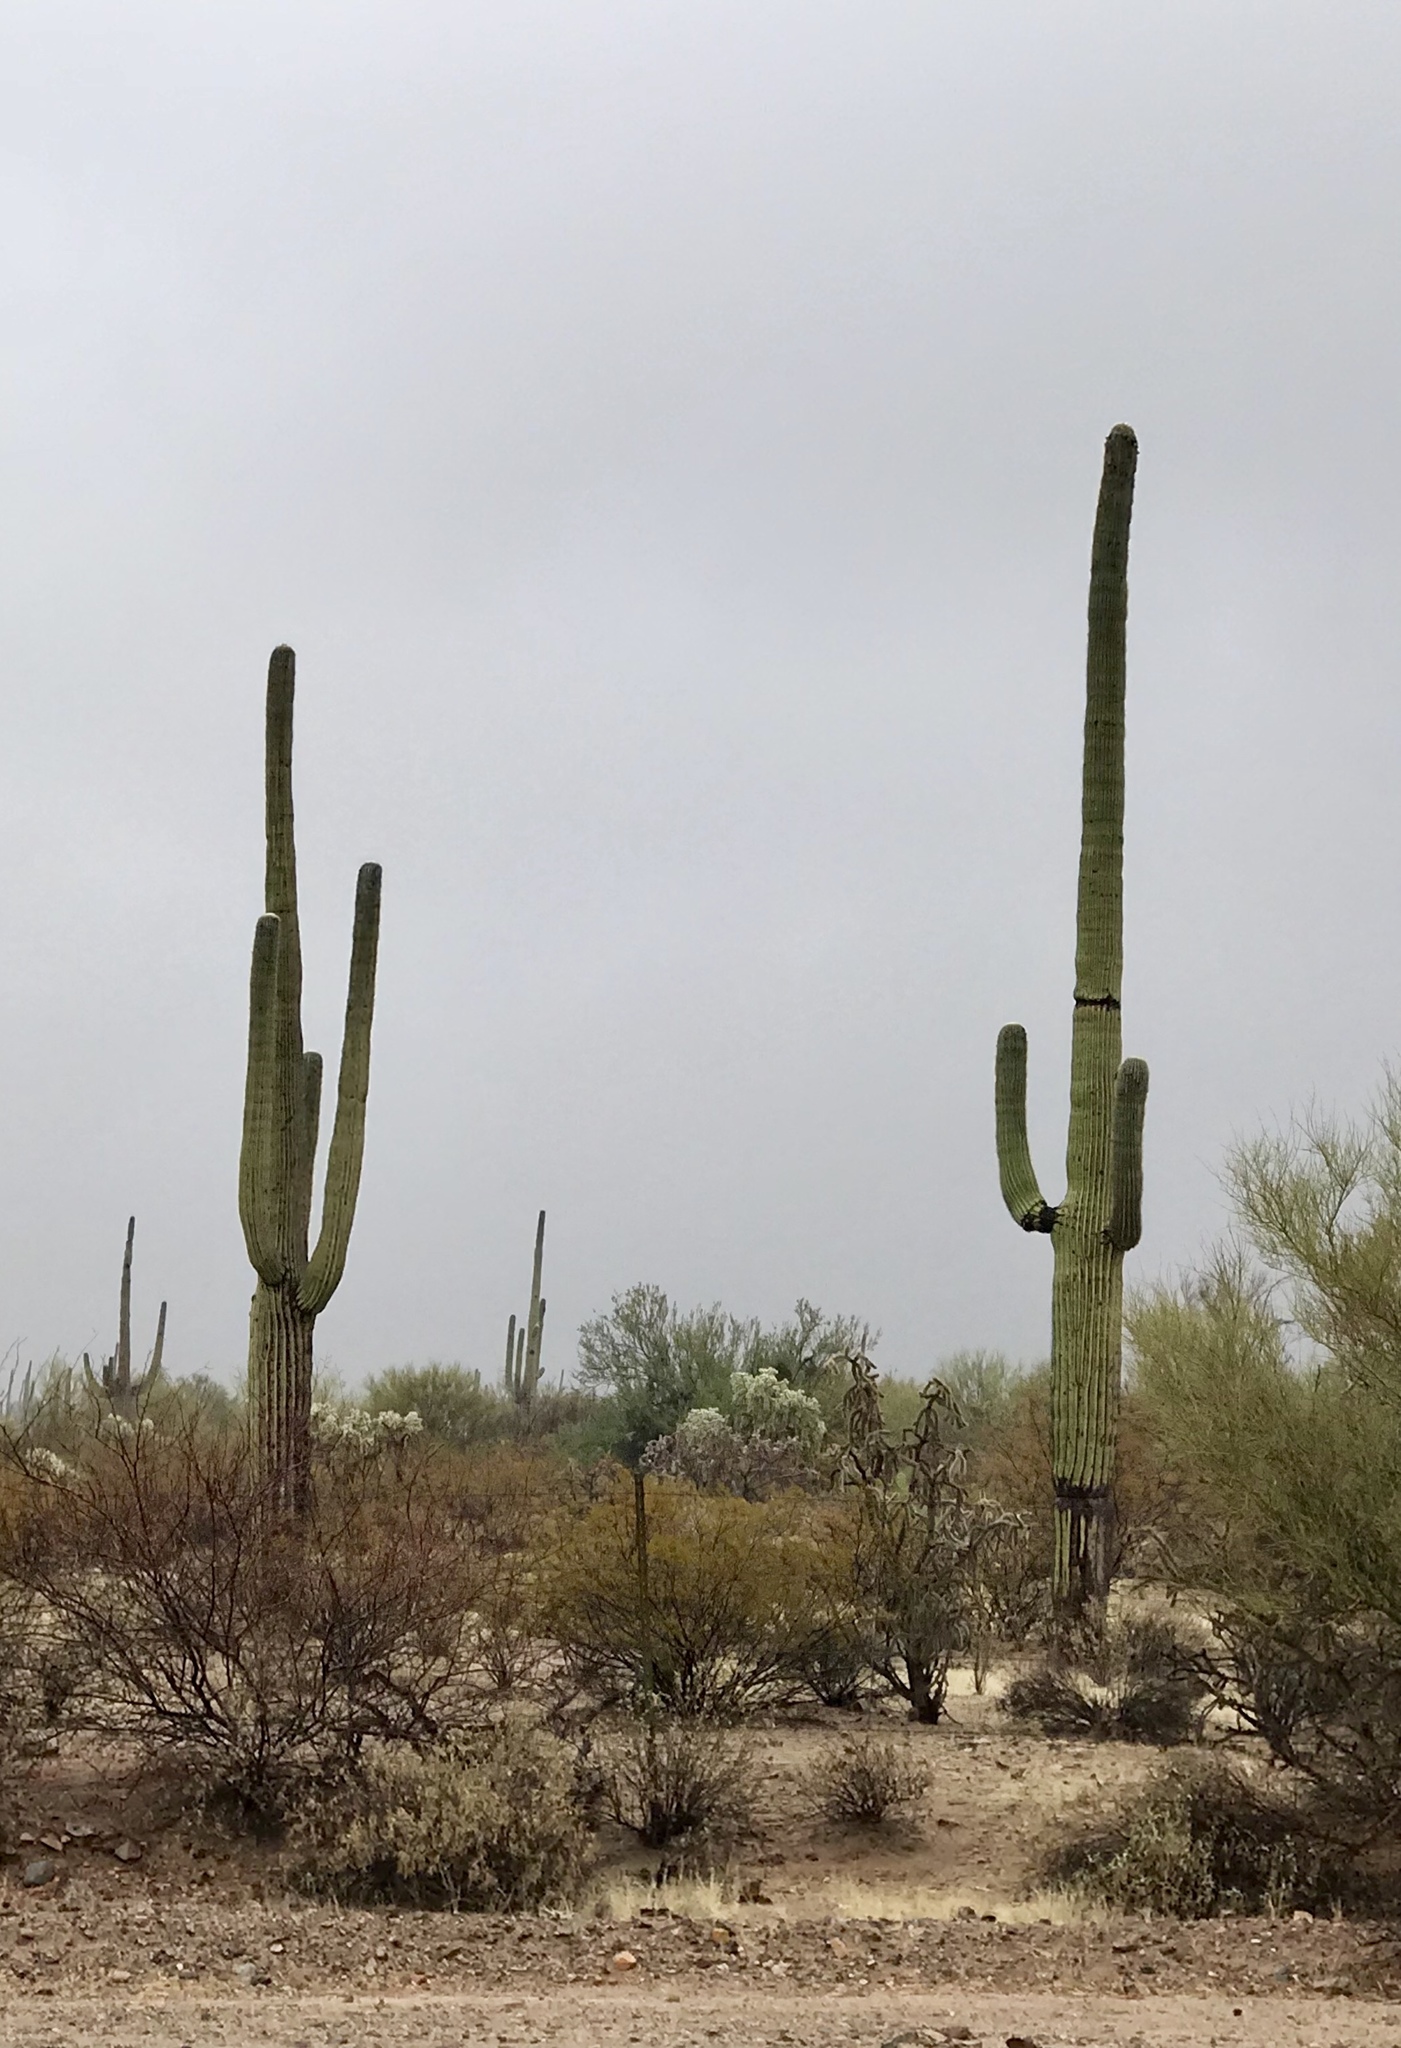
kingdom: Plantae
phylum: Tracheophyta
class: Magnoliopsida
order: Caryophyllales
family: Cactaceae
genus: Carnegiea
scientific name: Carnegiea gigantea
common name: Saguaro
